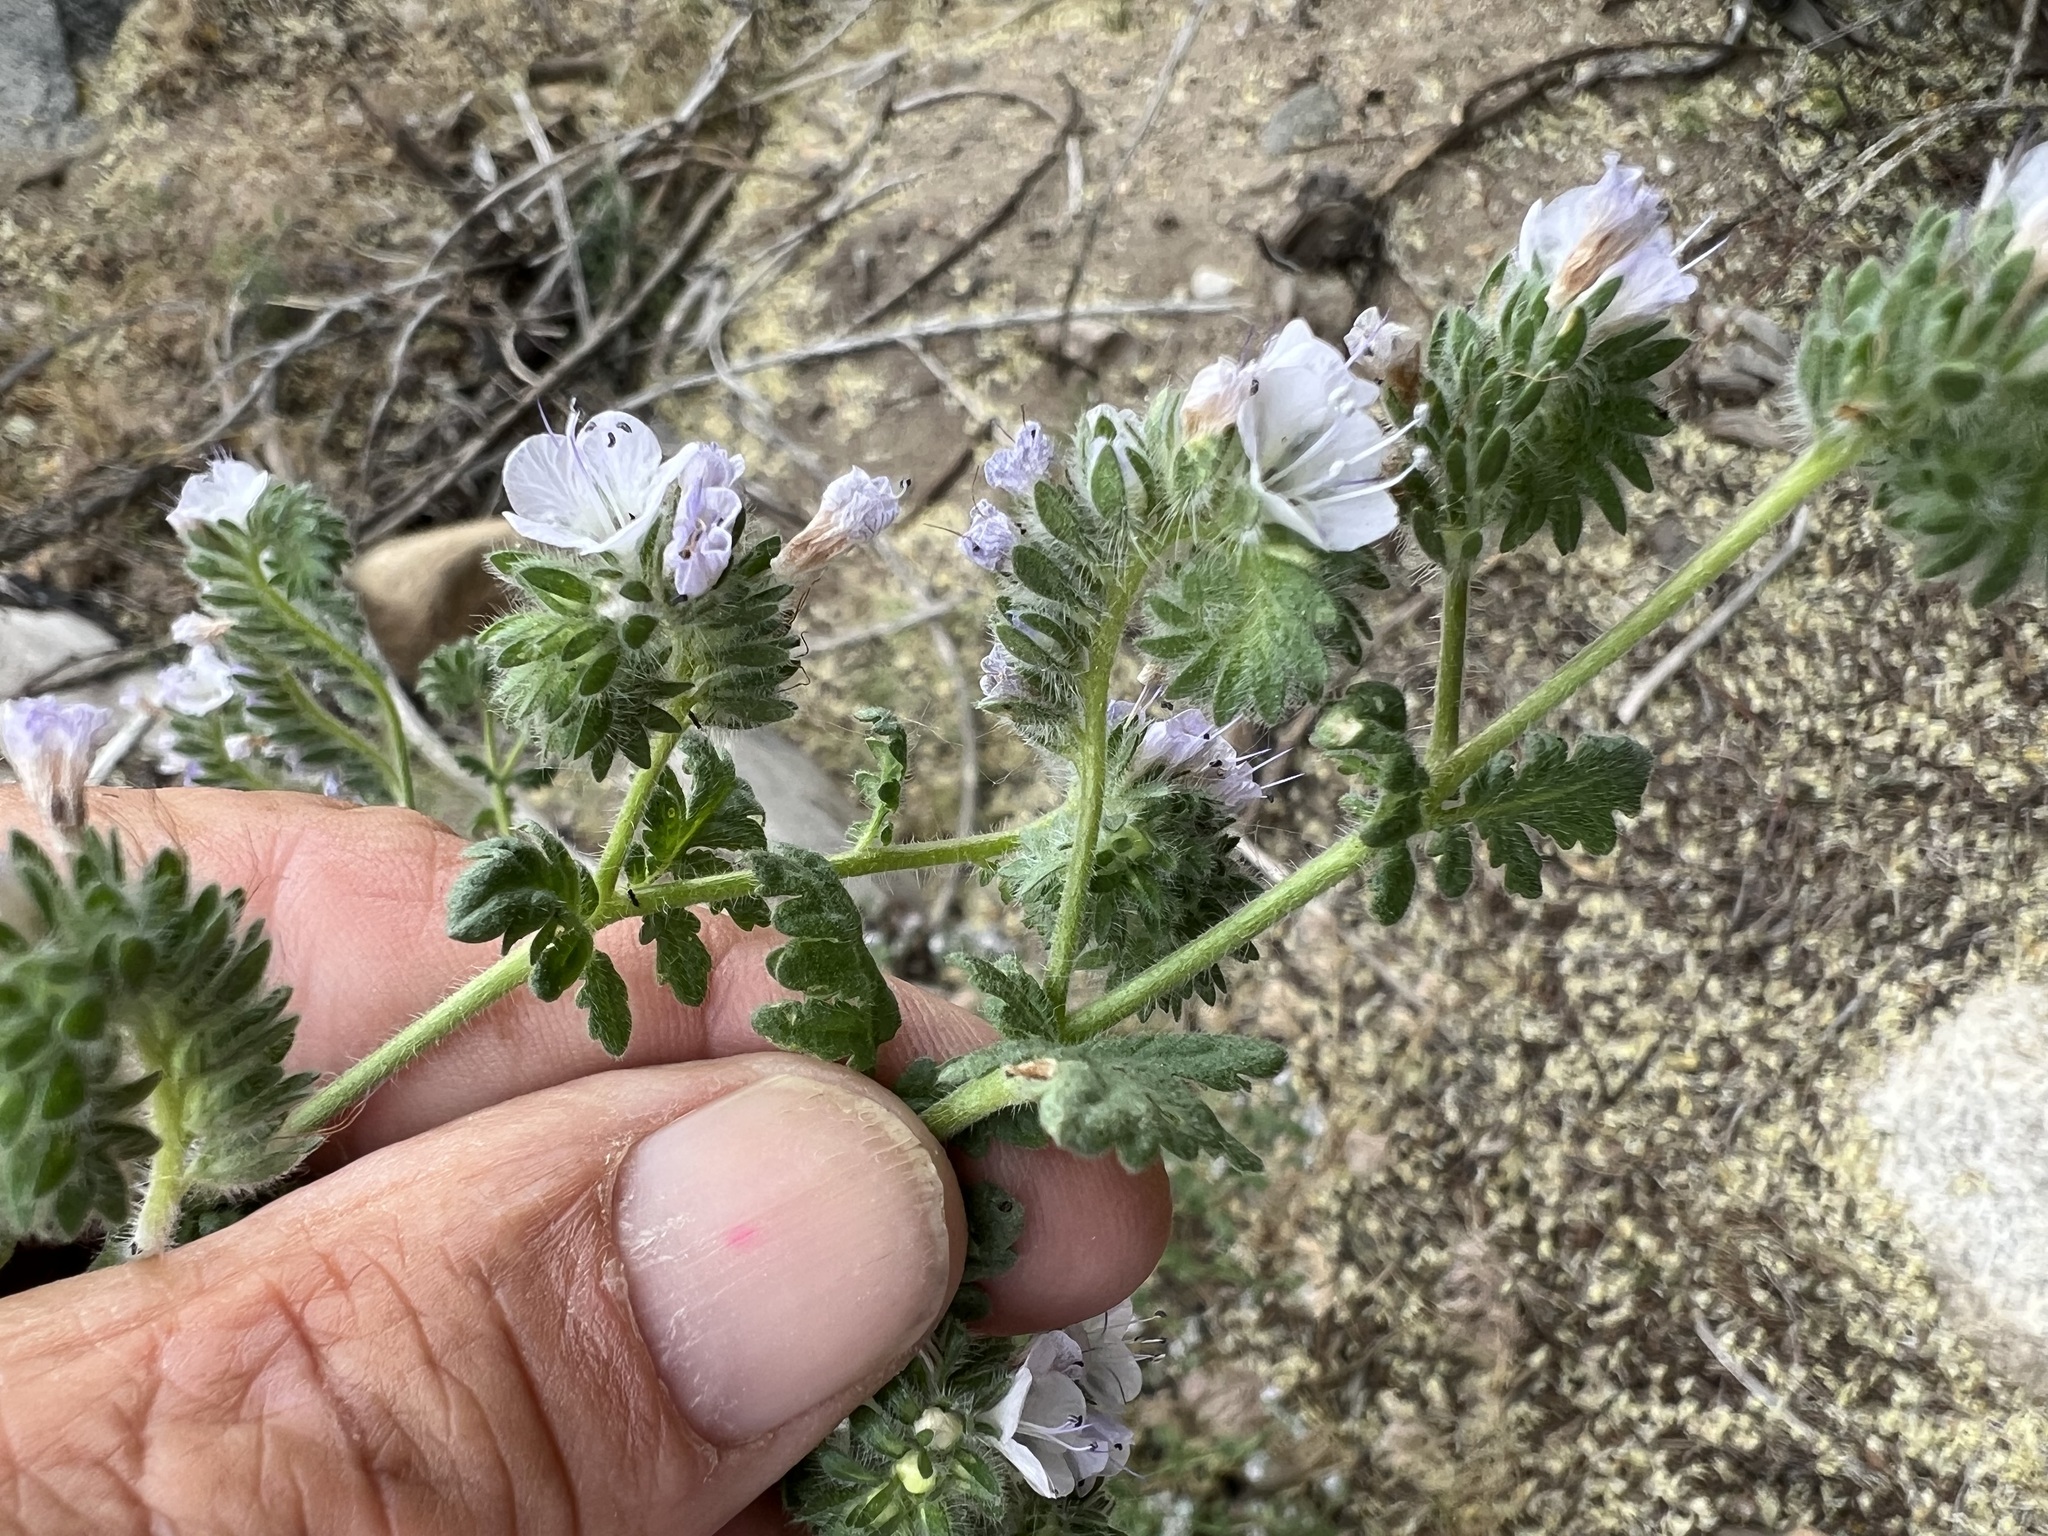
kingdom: Plantae
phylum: Tracheophyta
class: Magnoliopsida
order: Boraginales
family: Hydrophyllaceae
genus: Phacelia
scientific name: Phacelia distans
